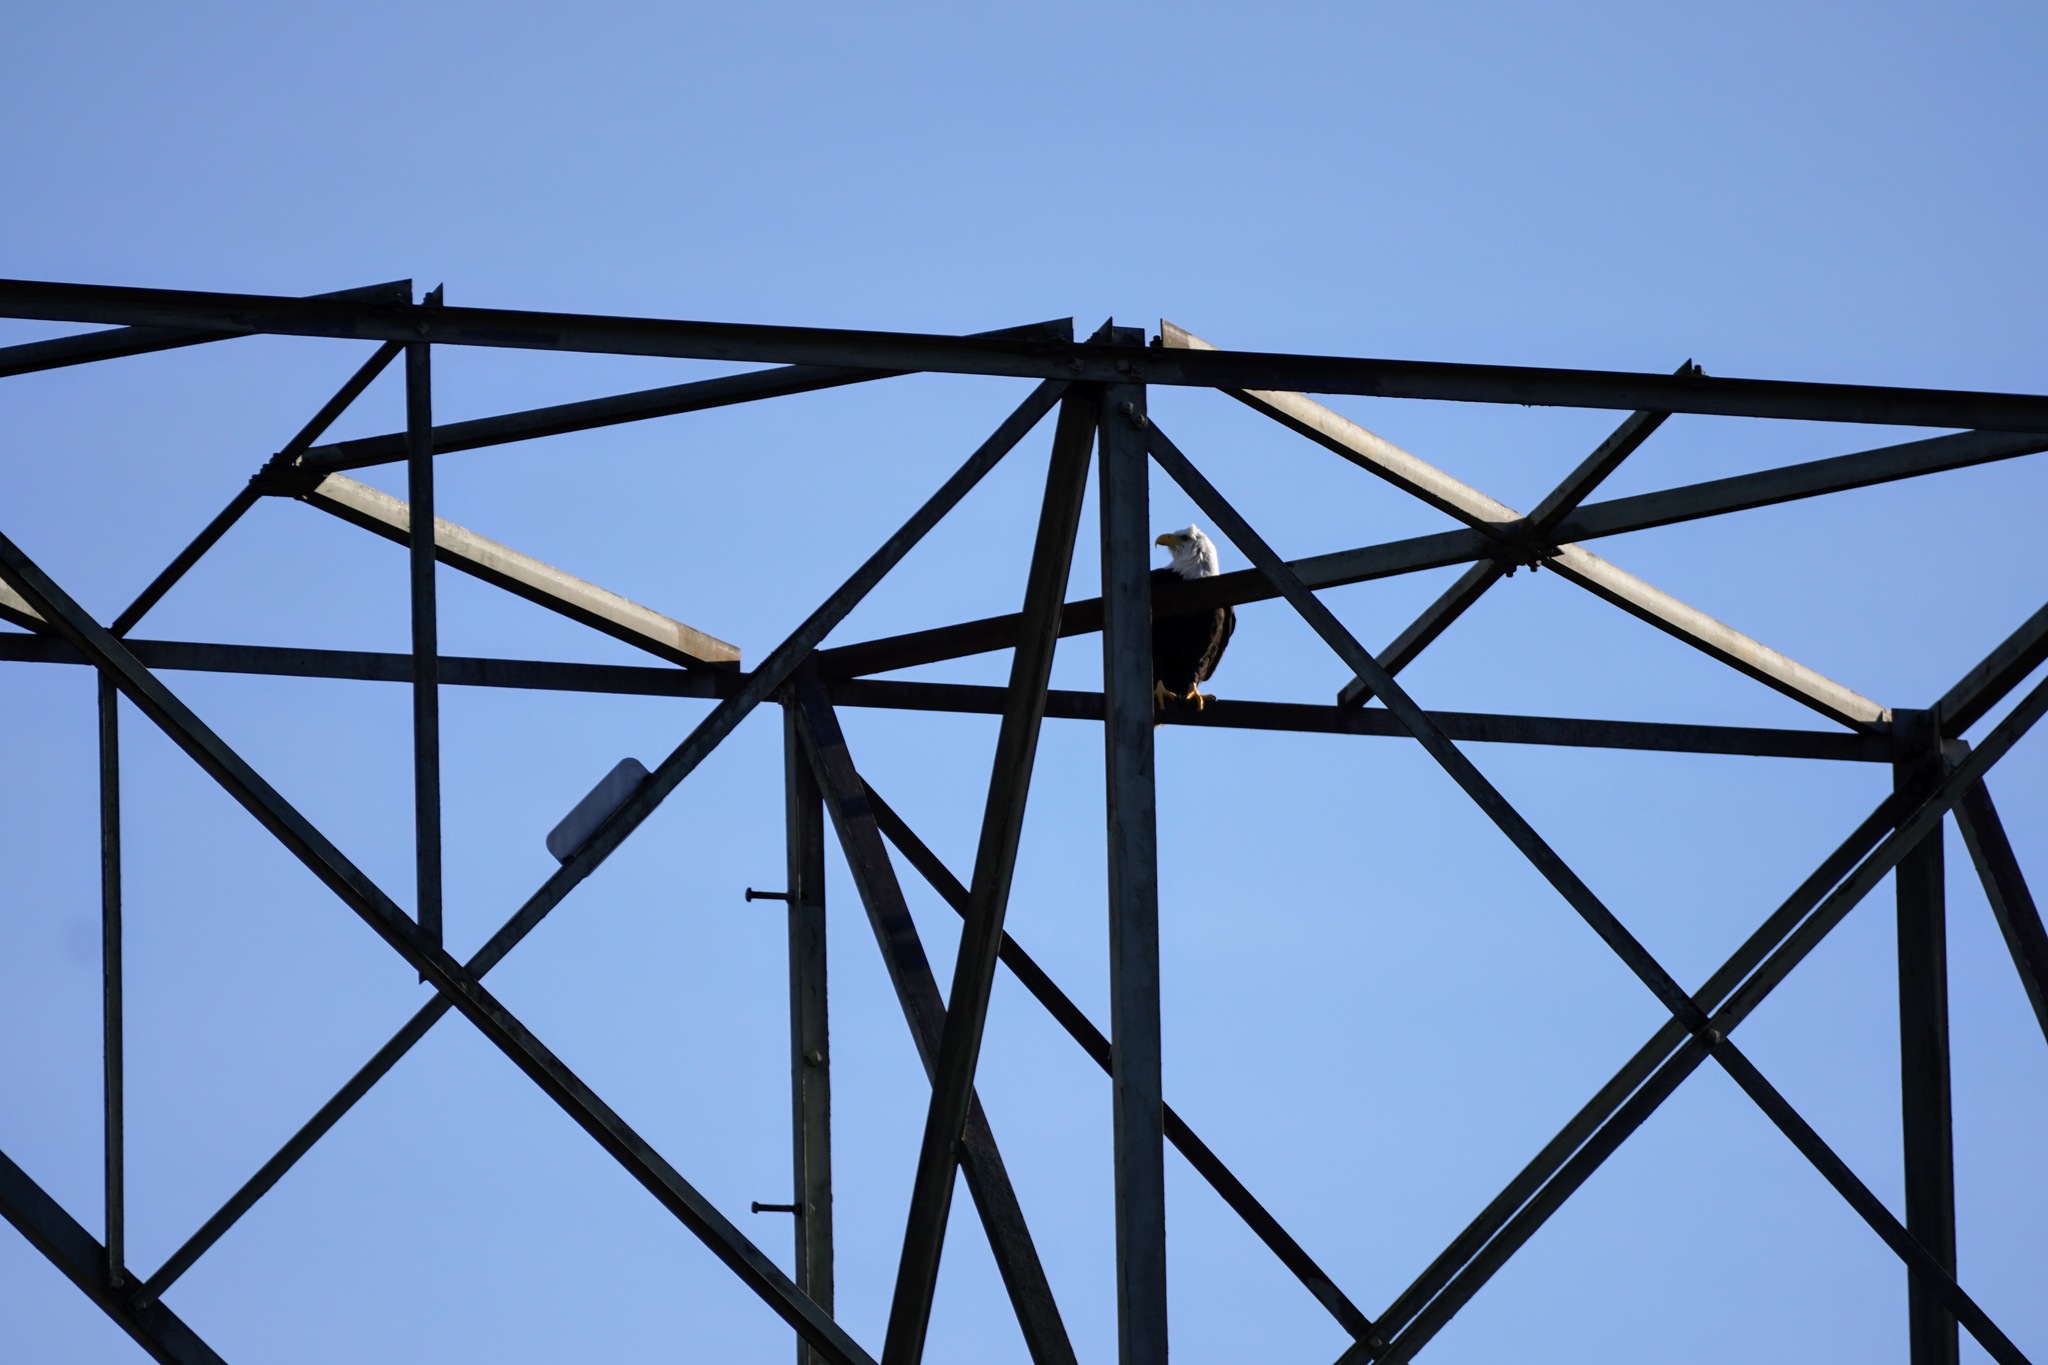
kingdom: Animalia
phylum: Chordata
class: Aves
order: Accipitriformes
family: Accipitridae
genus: Haliaeetus
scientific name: Haliaeetus leucocephalus
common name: Bald eagle
